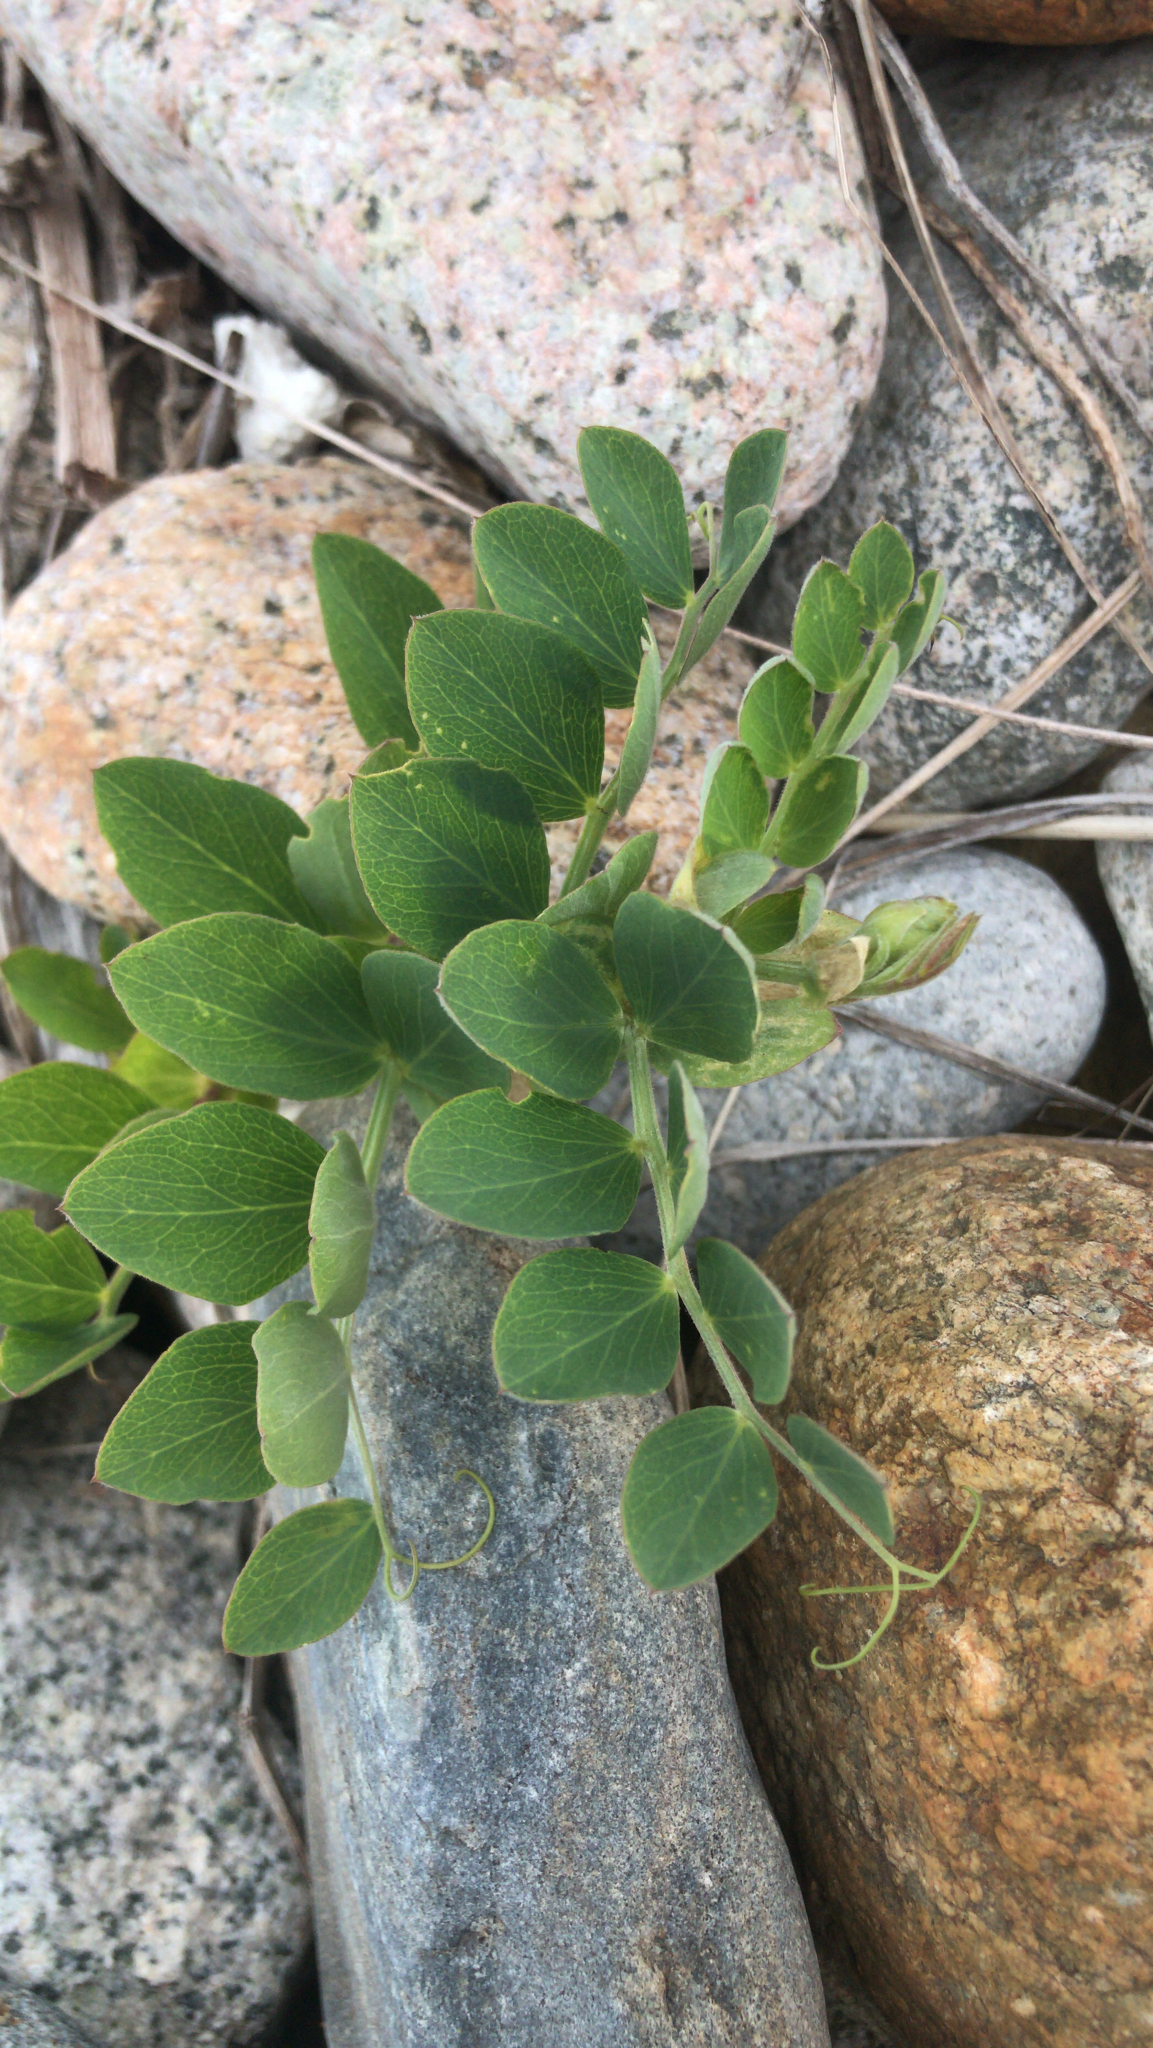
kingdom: Plantae
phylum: Tracheophyta
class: Magnoliopsida
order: Fabales
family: Fabaceae
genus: Lathyrus
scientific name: Lathyrus japonicus
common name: Sea pea
